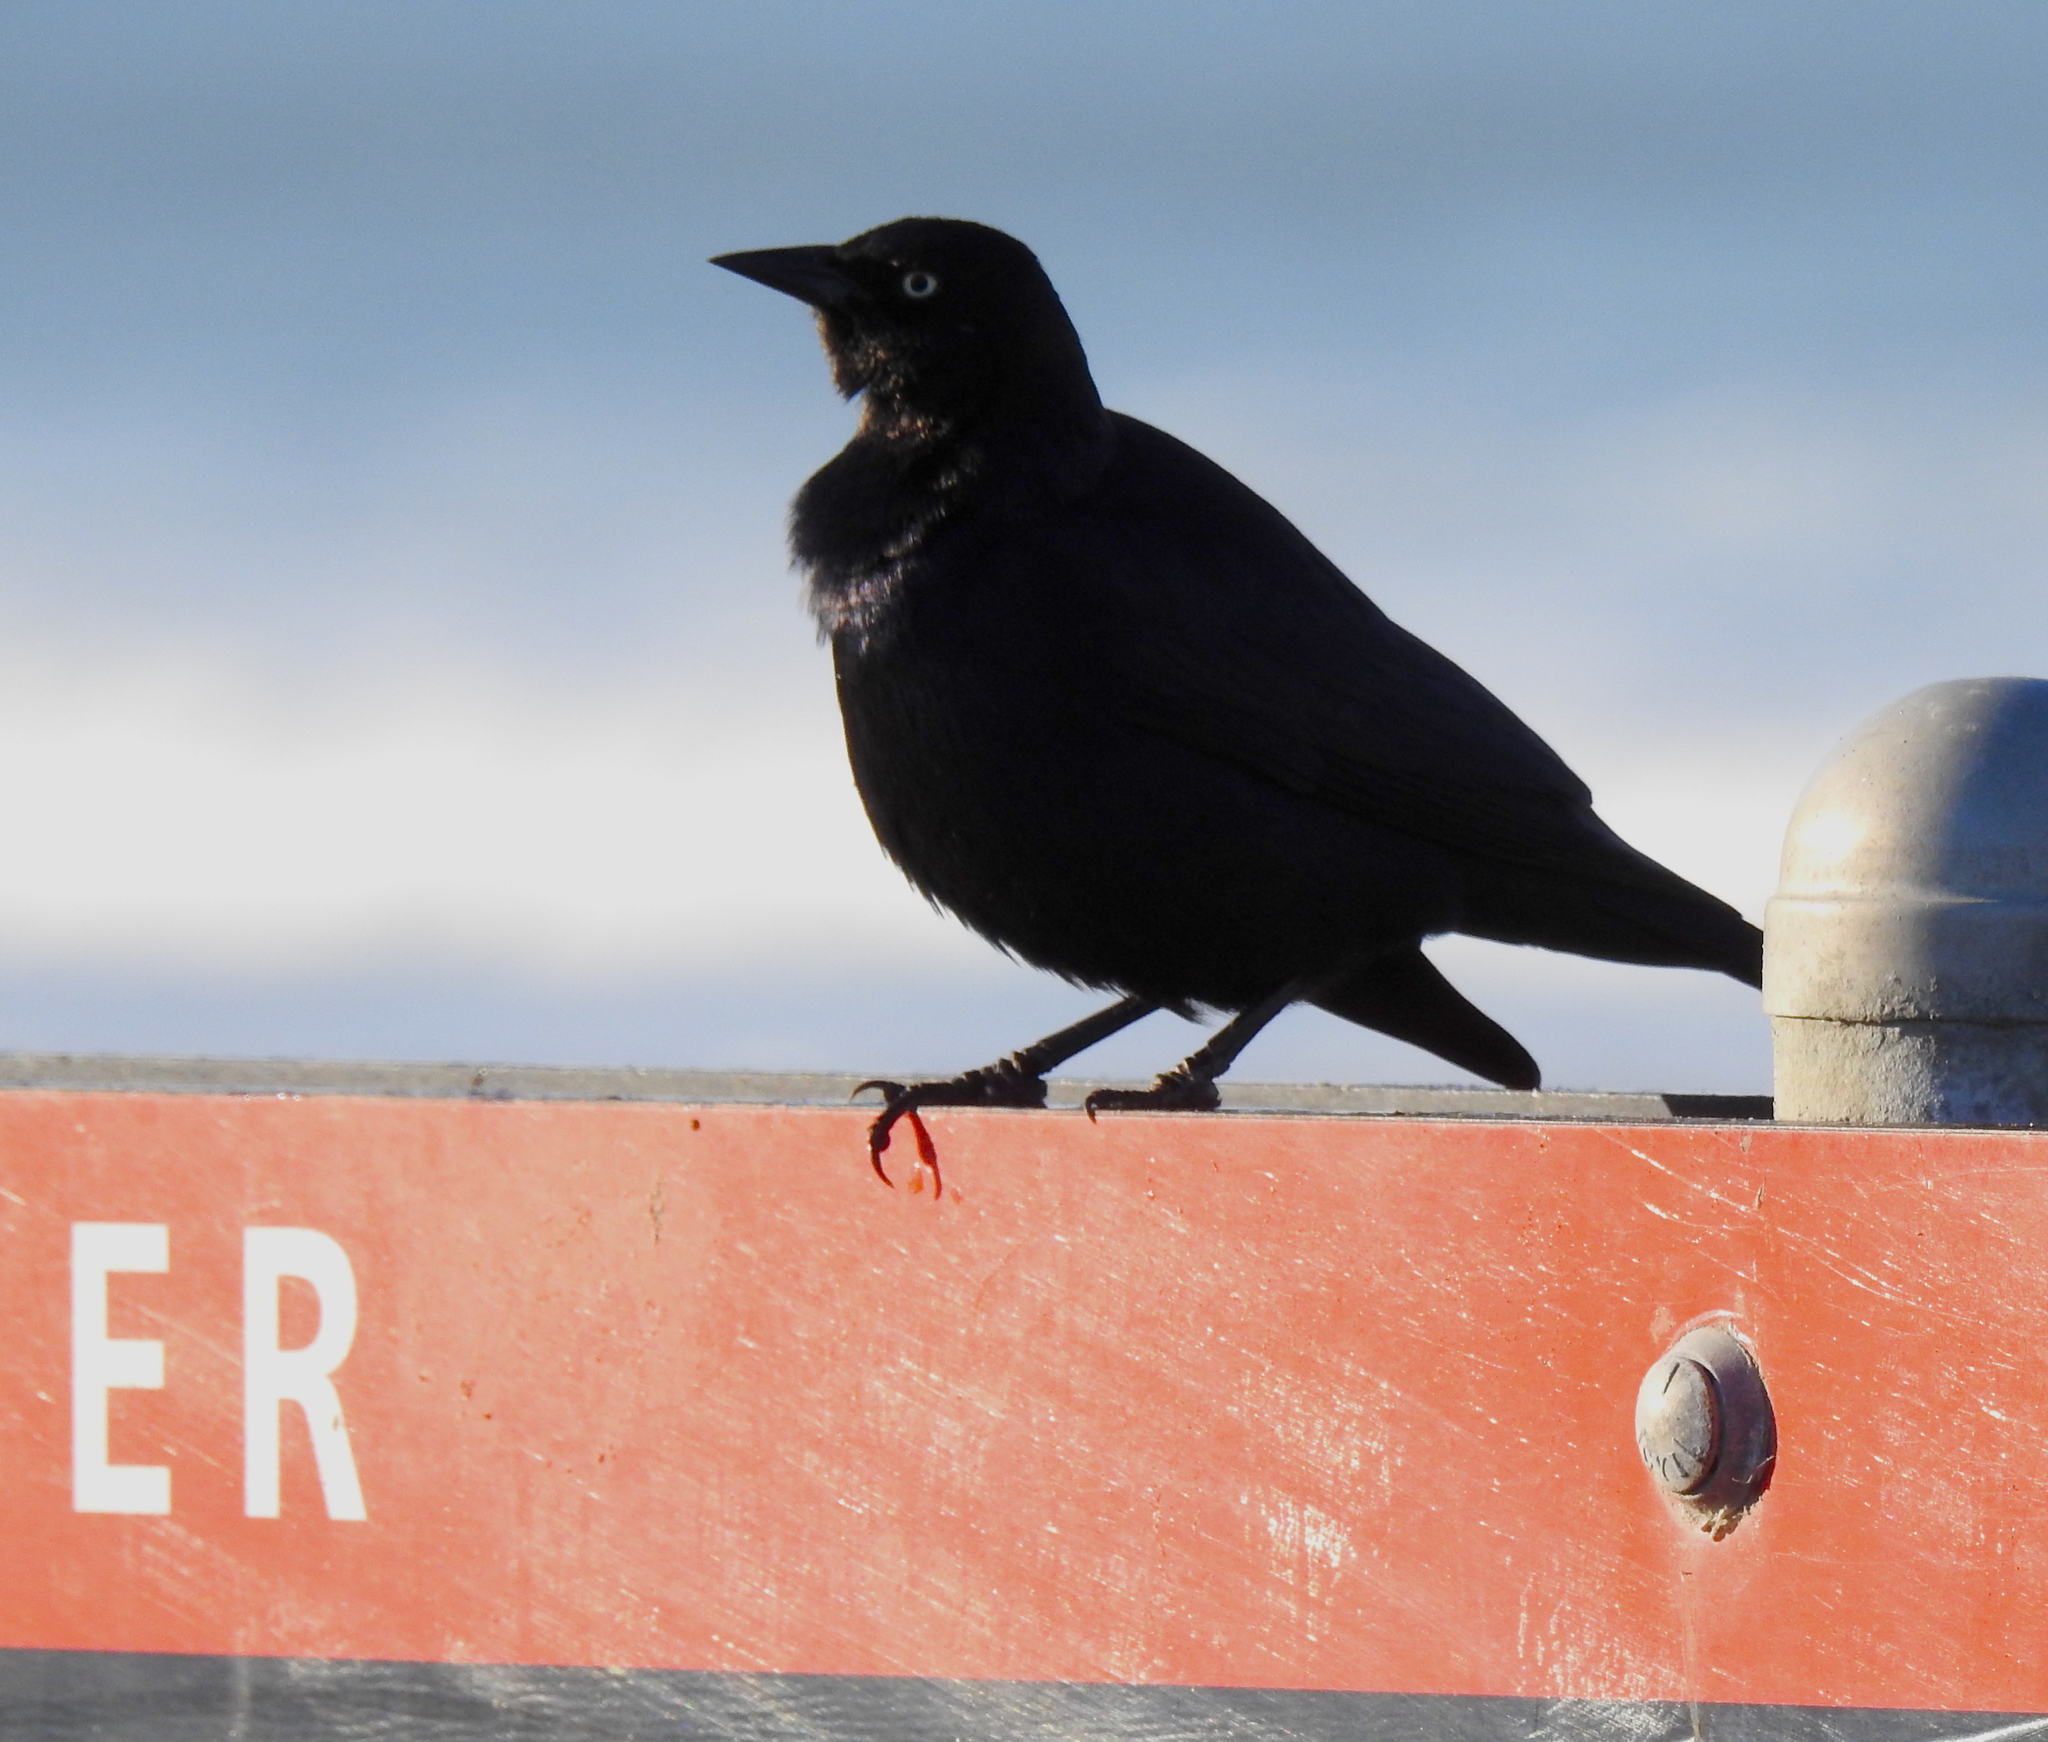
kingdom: Animalia
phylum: Chordata
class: Aves
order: Passeriformes
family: Icteridae
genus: Euphagus
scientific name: Euphagus cyanocephalus
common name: Brewer's blackbird
